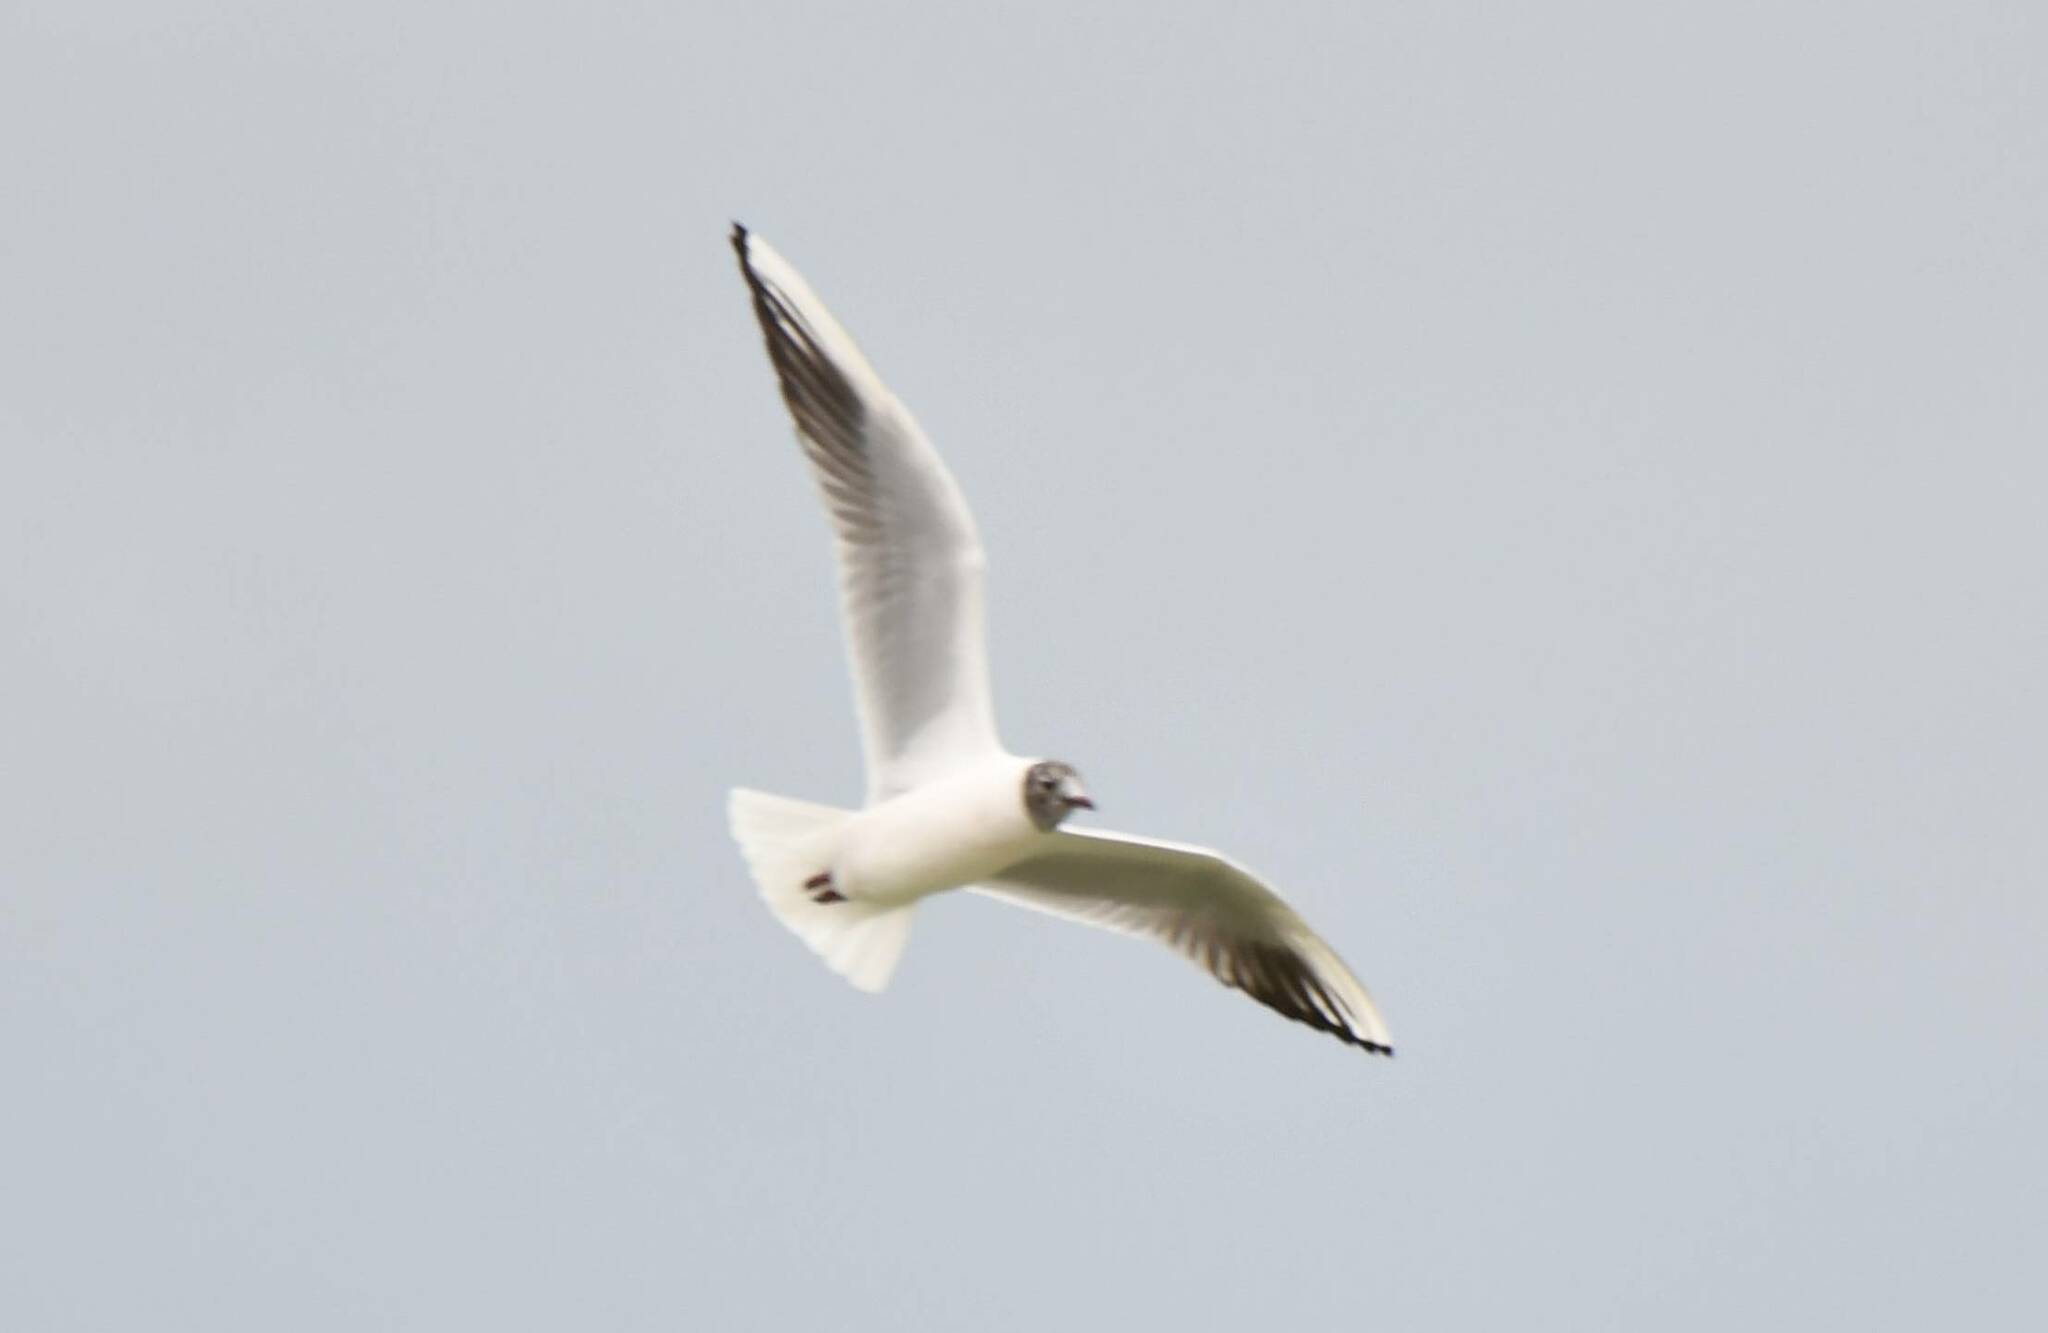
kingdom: Animalia
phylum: Chordata
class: Aves
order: Charadriiformes
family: Laridae
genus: Chroicocephalus
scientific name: Chroicocephalus ridibundus
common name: Black-headed gull
